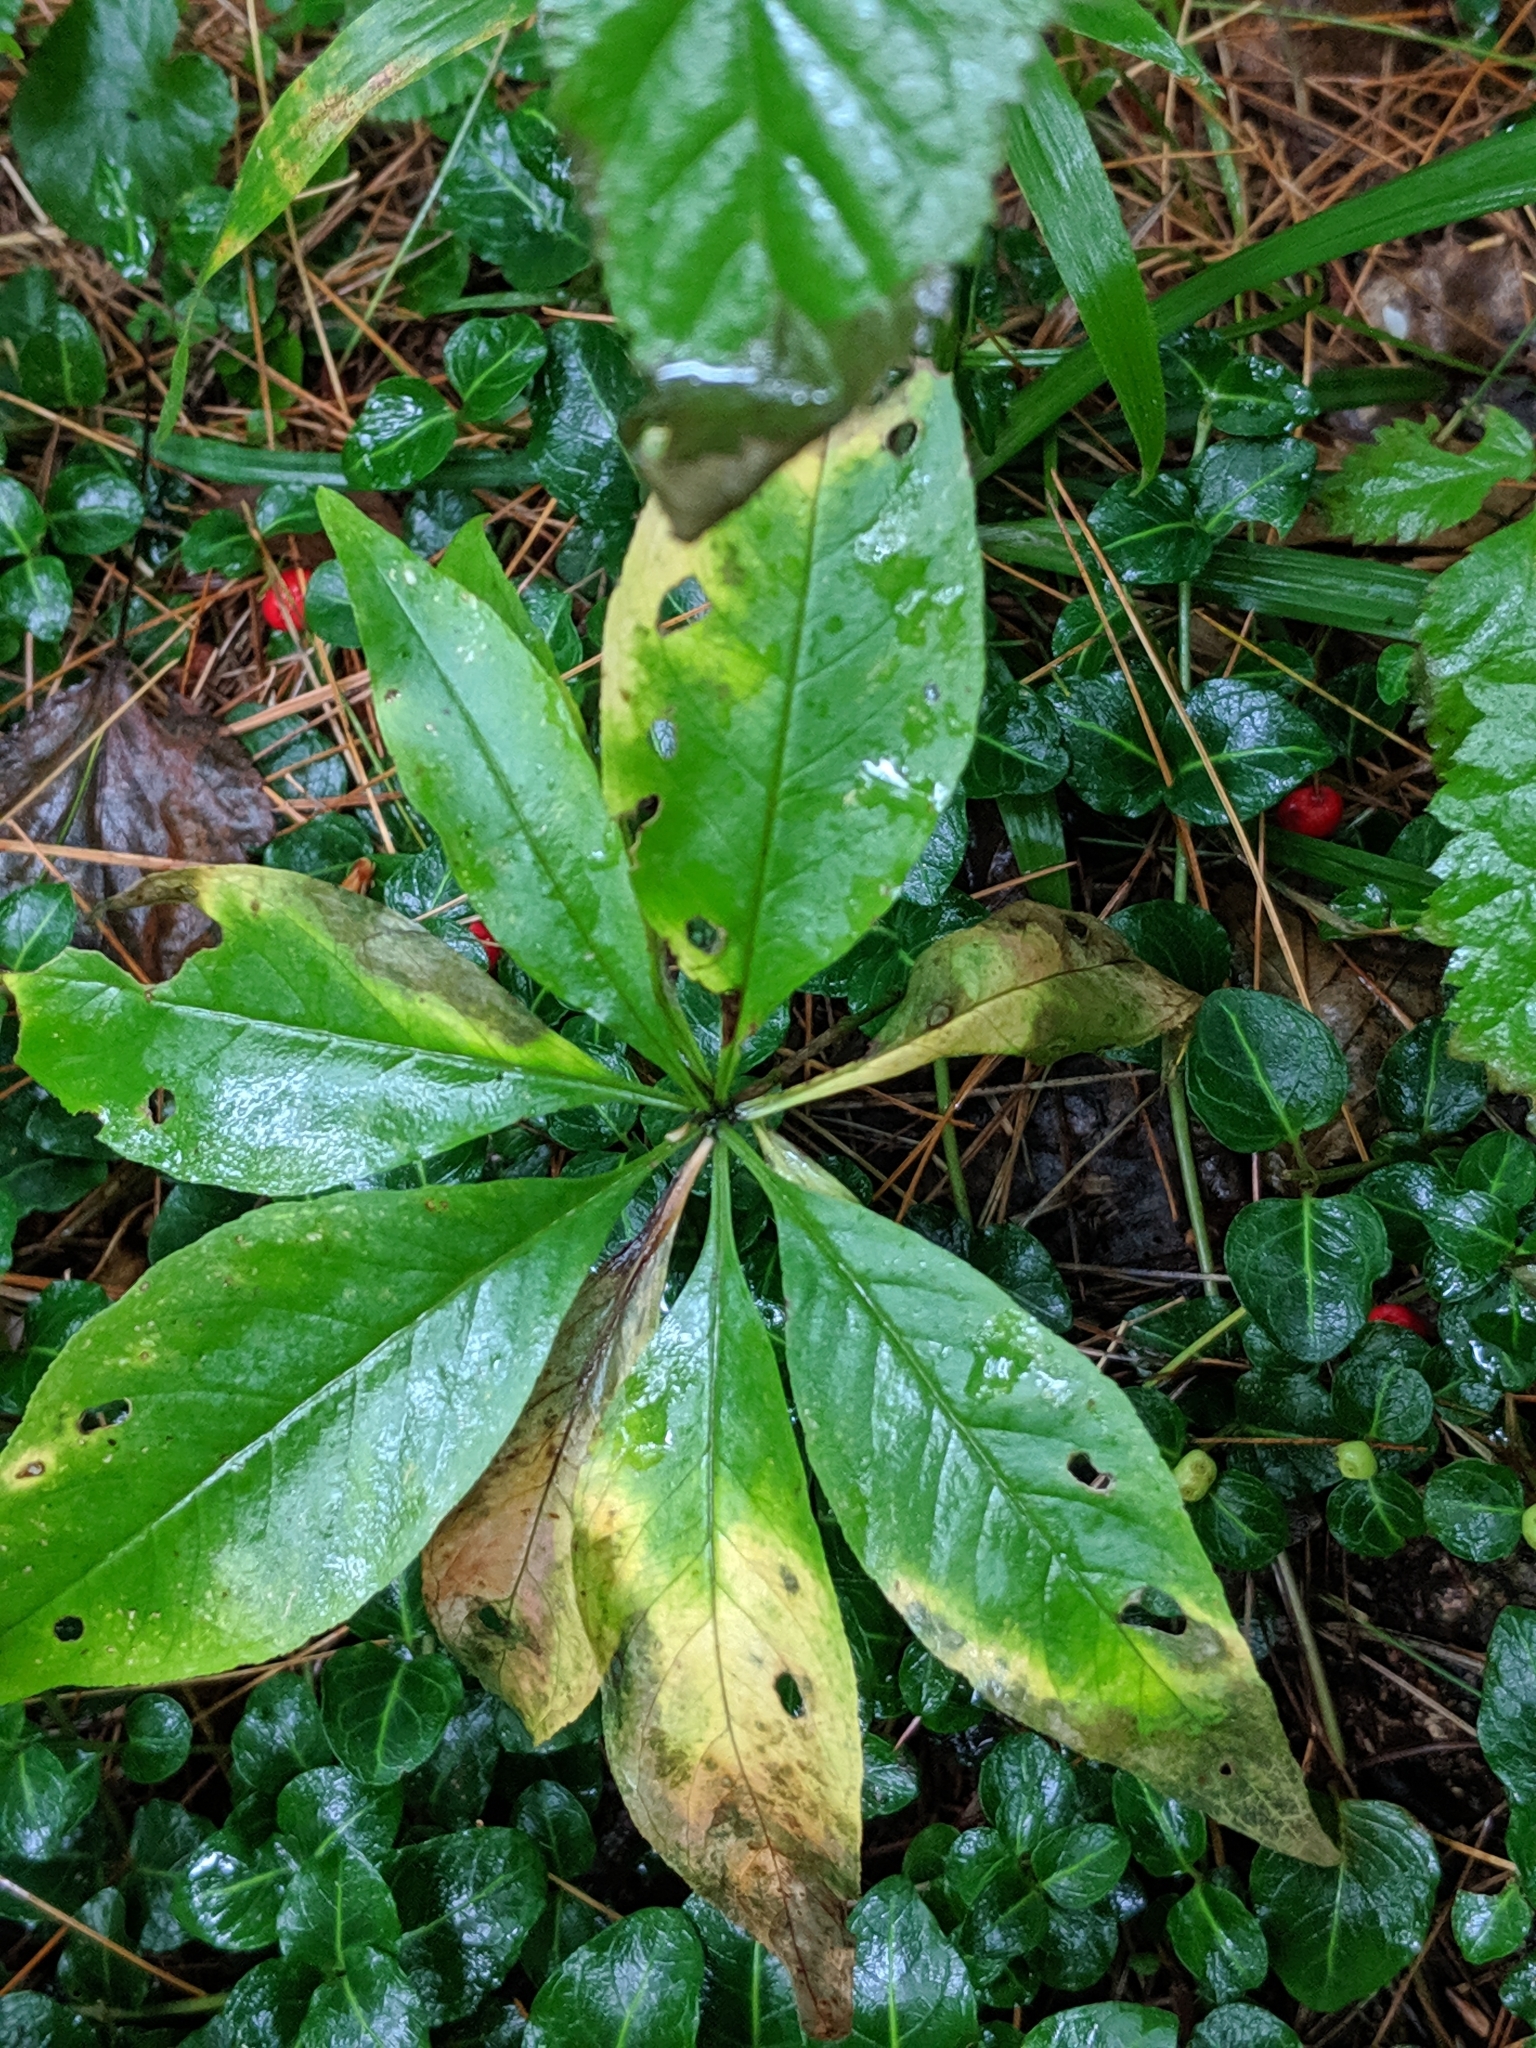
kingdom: Plantae
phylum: Tracheophyta
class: Magnoliopsida
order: Ericales
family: Primulaceae
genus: Lysimachia
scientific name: Lysimachia borealis
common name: American starflower
